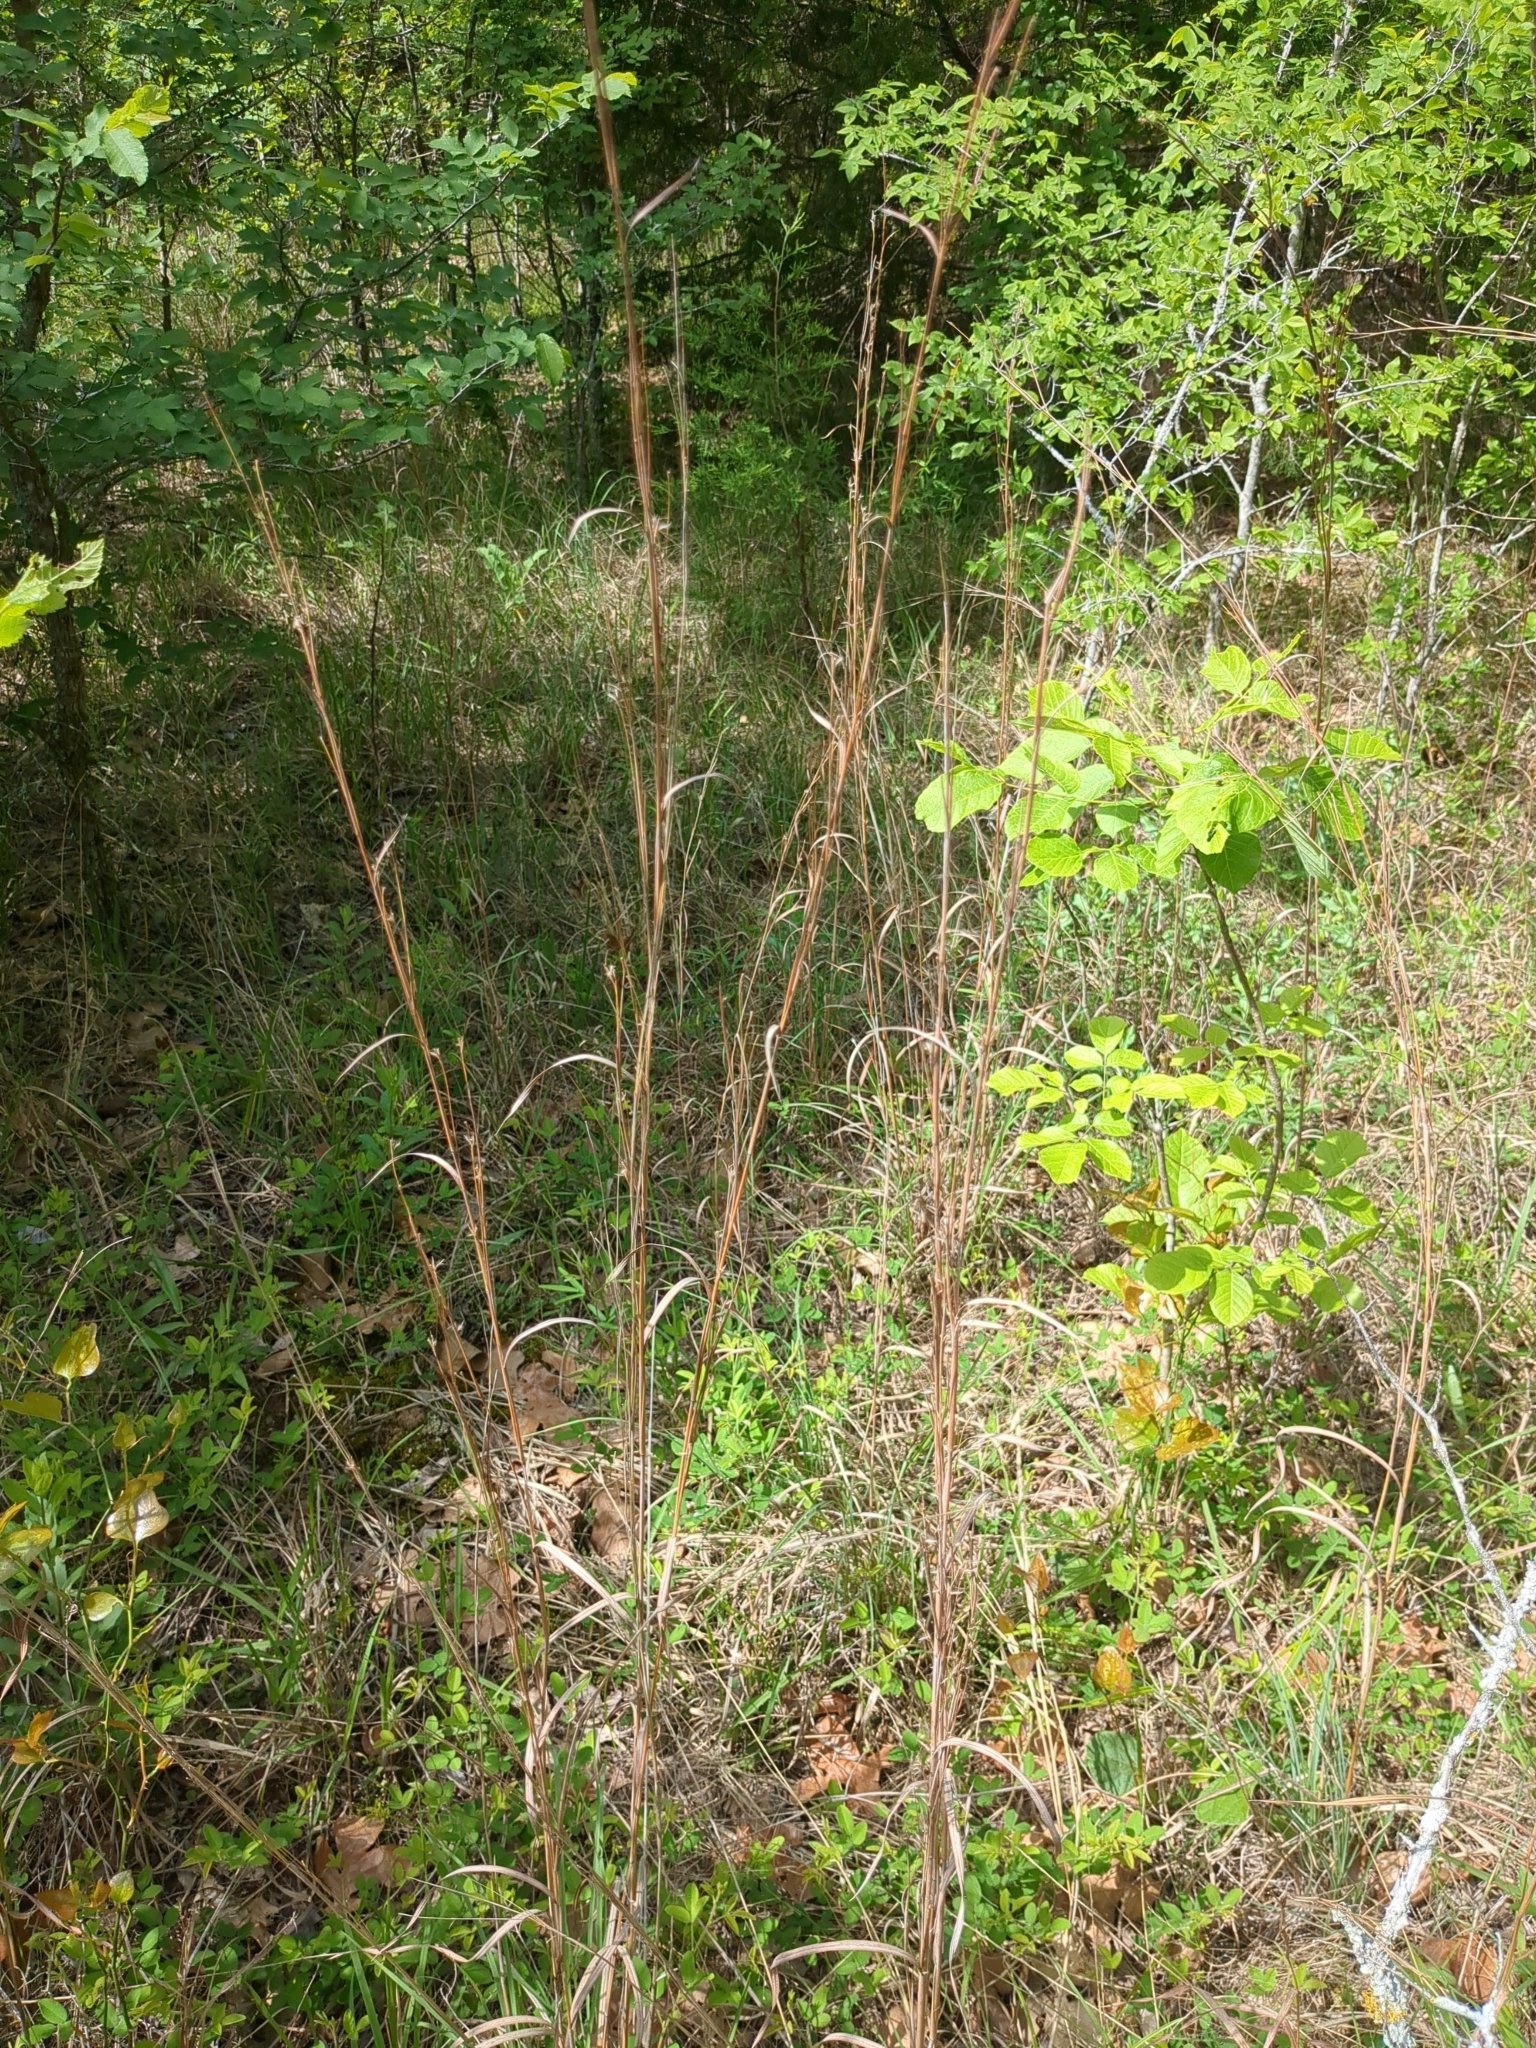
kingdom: Plantae
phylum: Tracheophyta
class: Liliopsida
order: Poales
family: Poaceae
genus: Schizachyrium
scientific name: Schizachyrium scoparium
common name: Little bluestem
